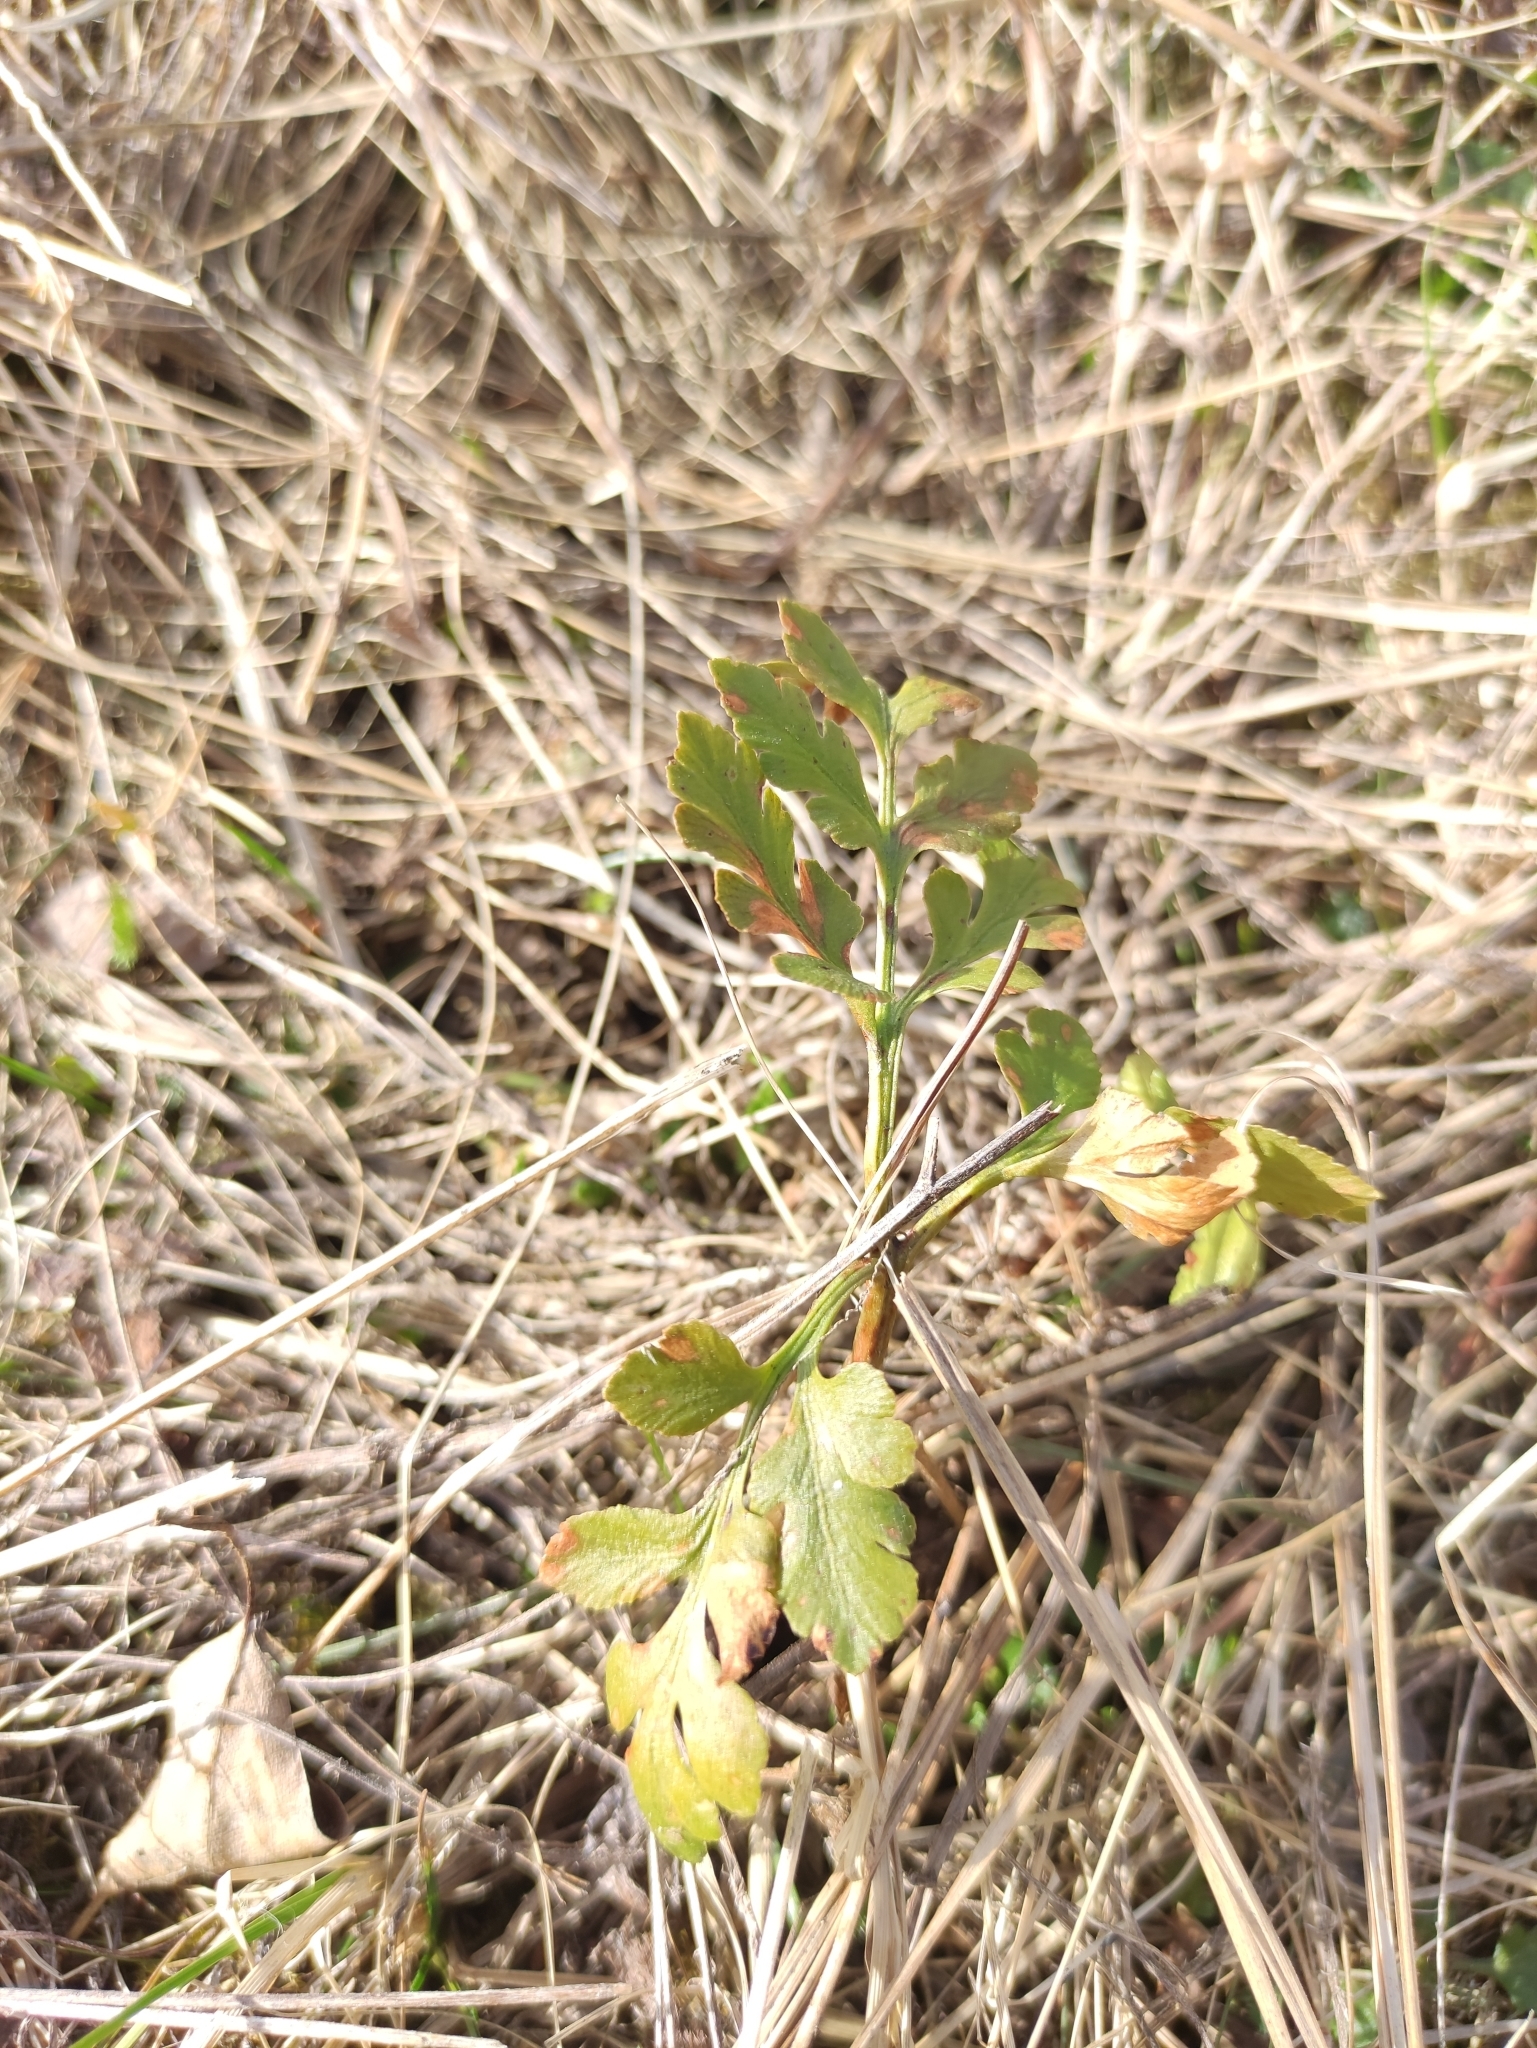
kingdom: Plantae
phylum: Tracheophyta
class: Polypodiopsida
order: Ophioglossales
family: Ophioglossaceae
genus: Sceptridium
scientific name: Sceptridium multifidum
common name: Leathery grape fern
